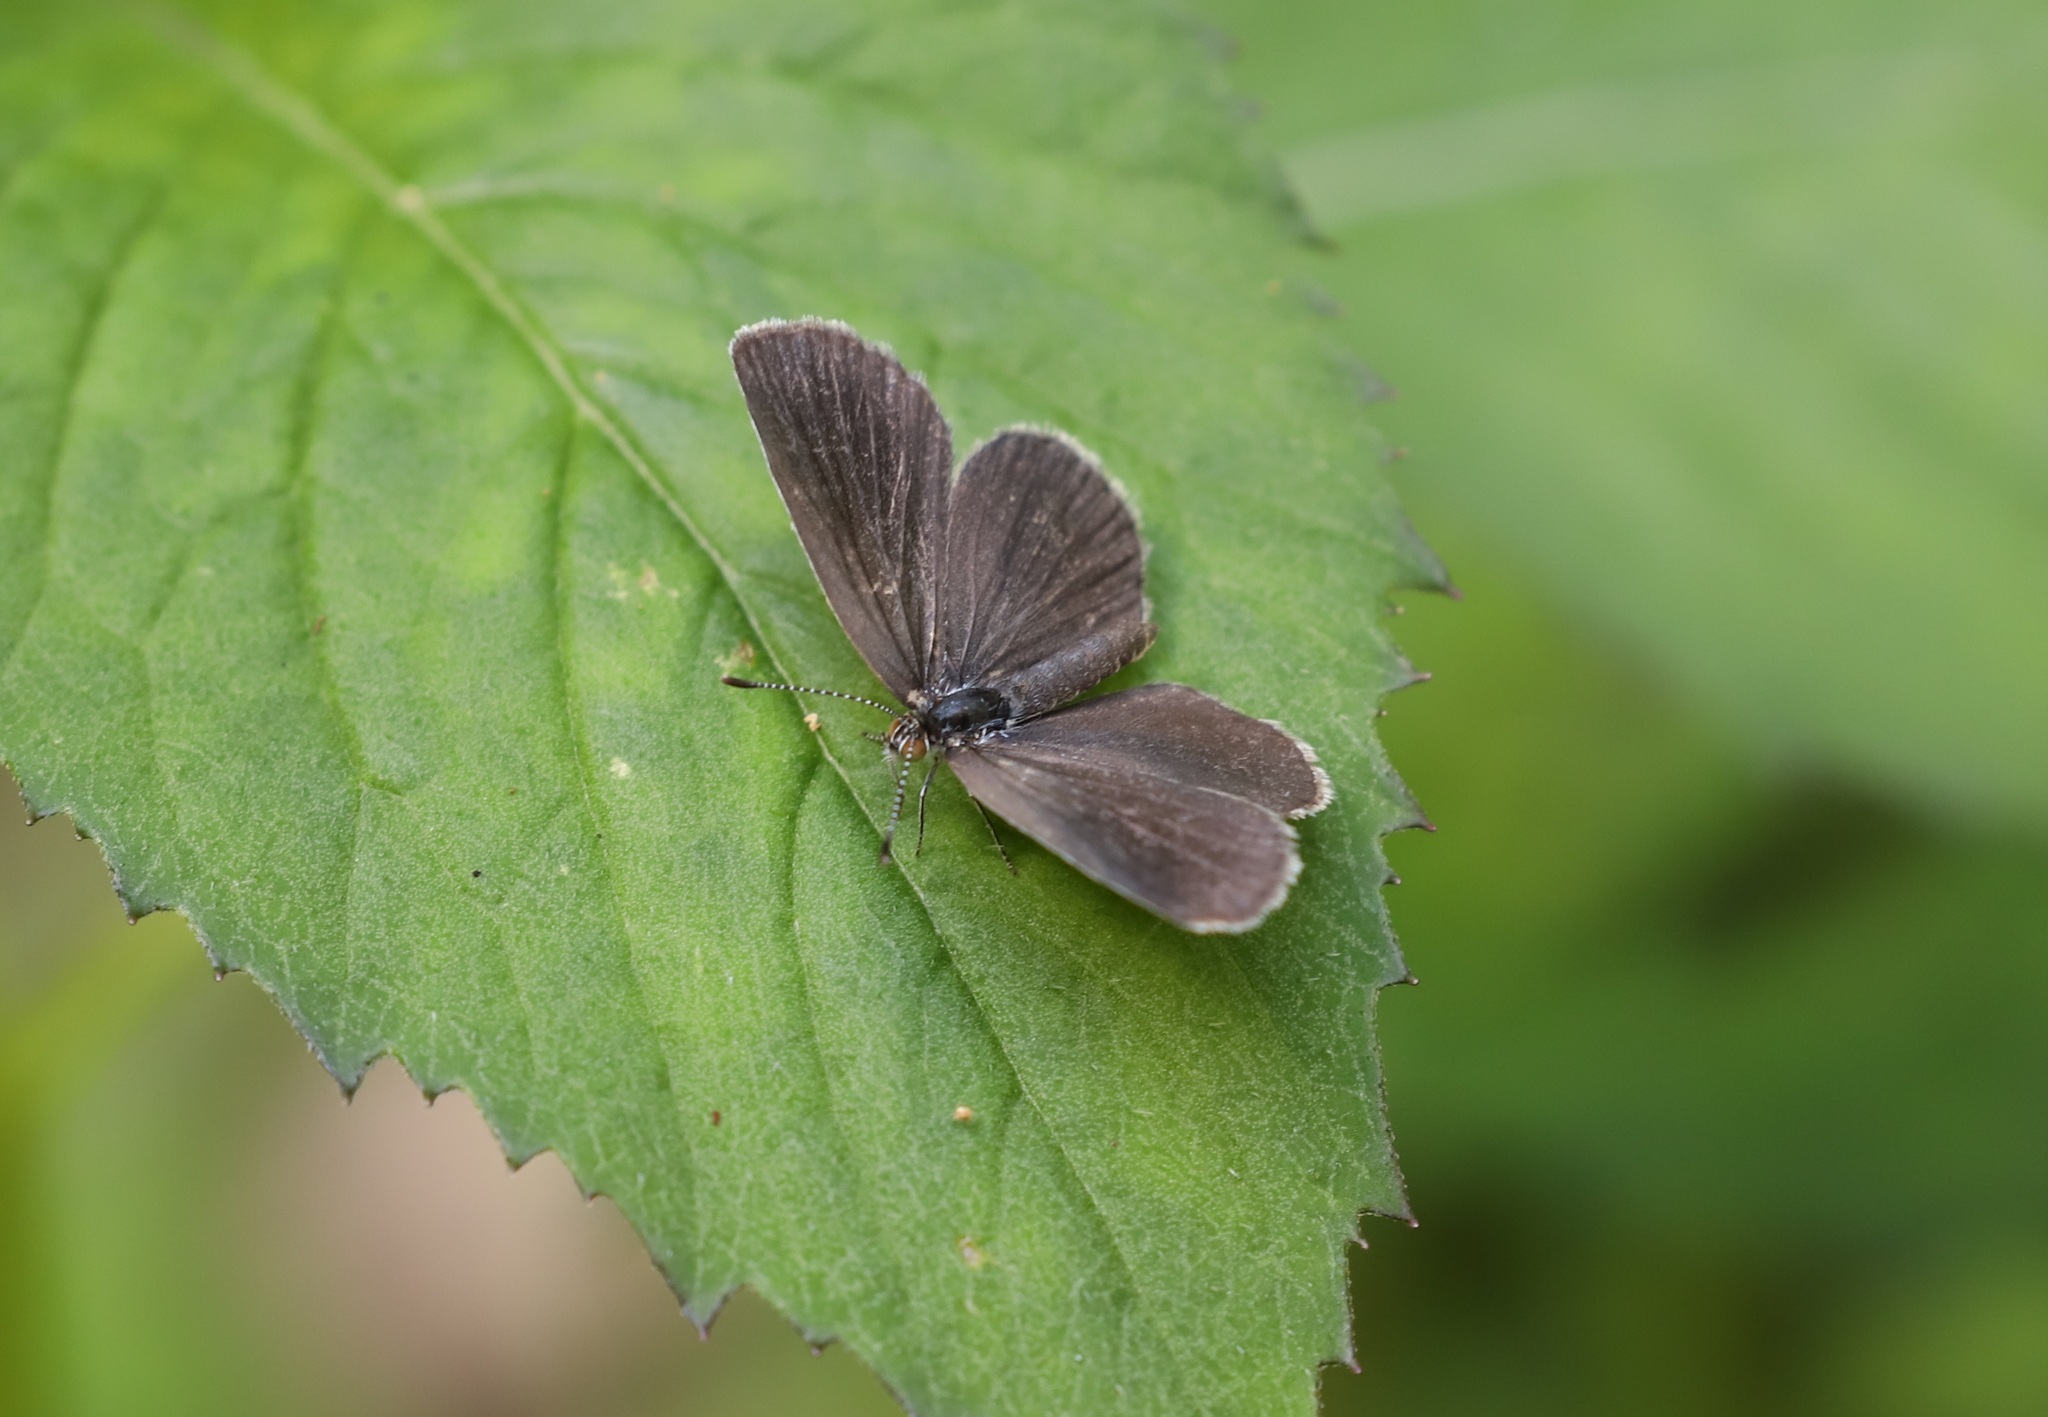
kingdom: Animalia
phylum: Arthropoda
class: Insecta
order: Lepidoptera
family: Lycaenidae
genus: Pseudozizeeria
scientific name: Pseudozizeeria maha
